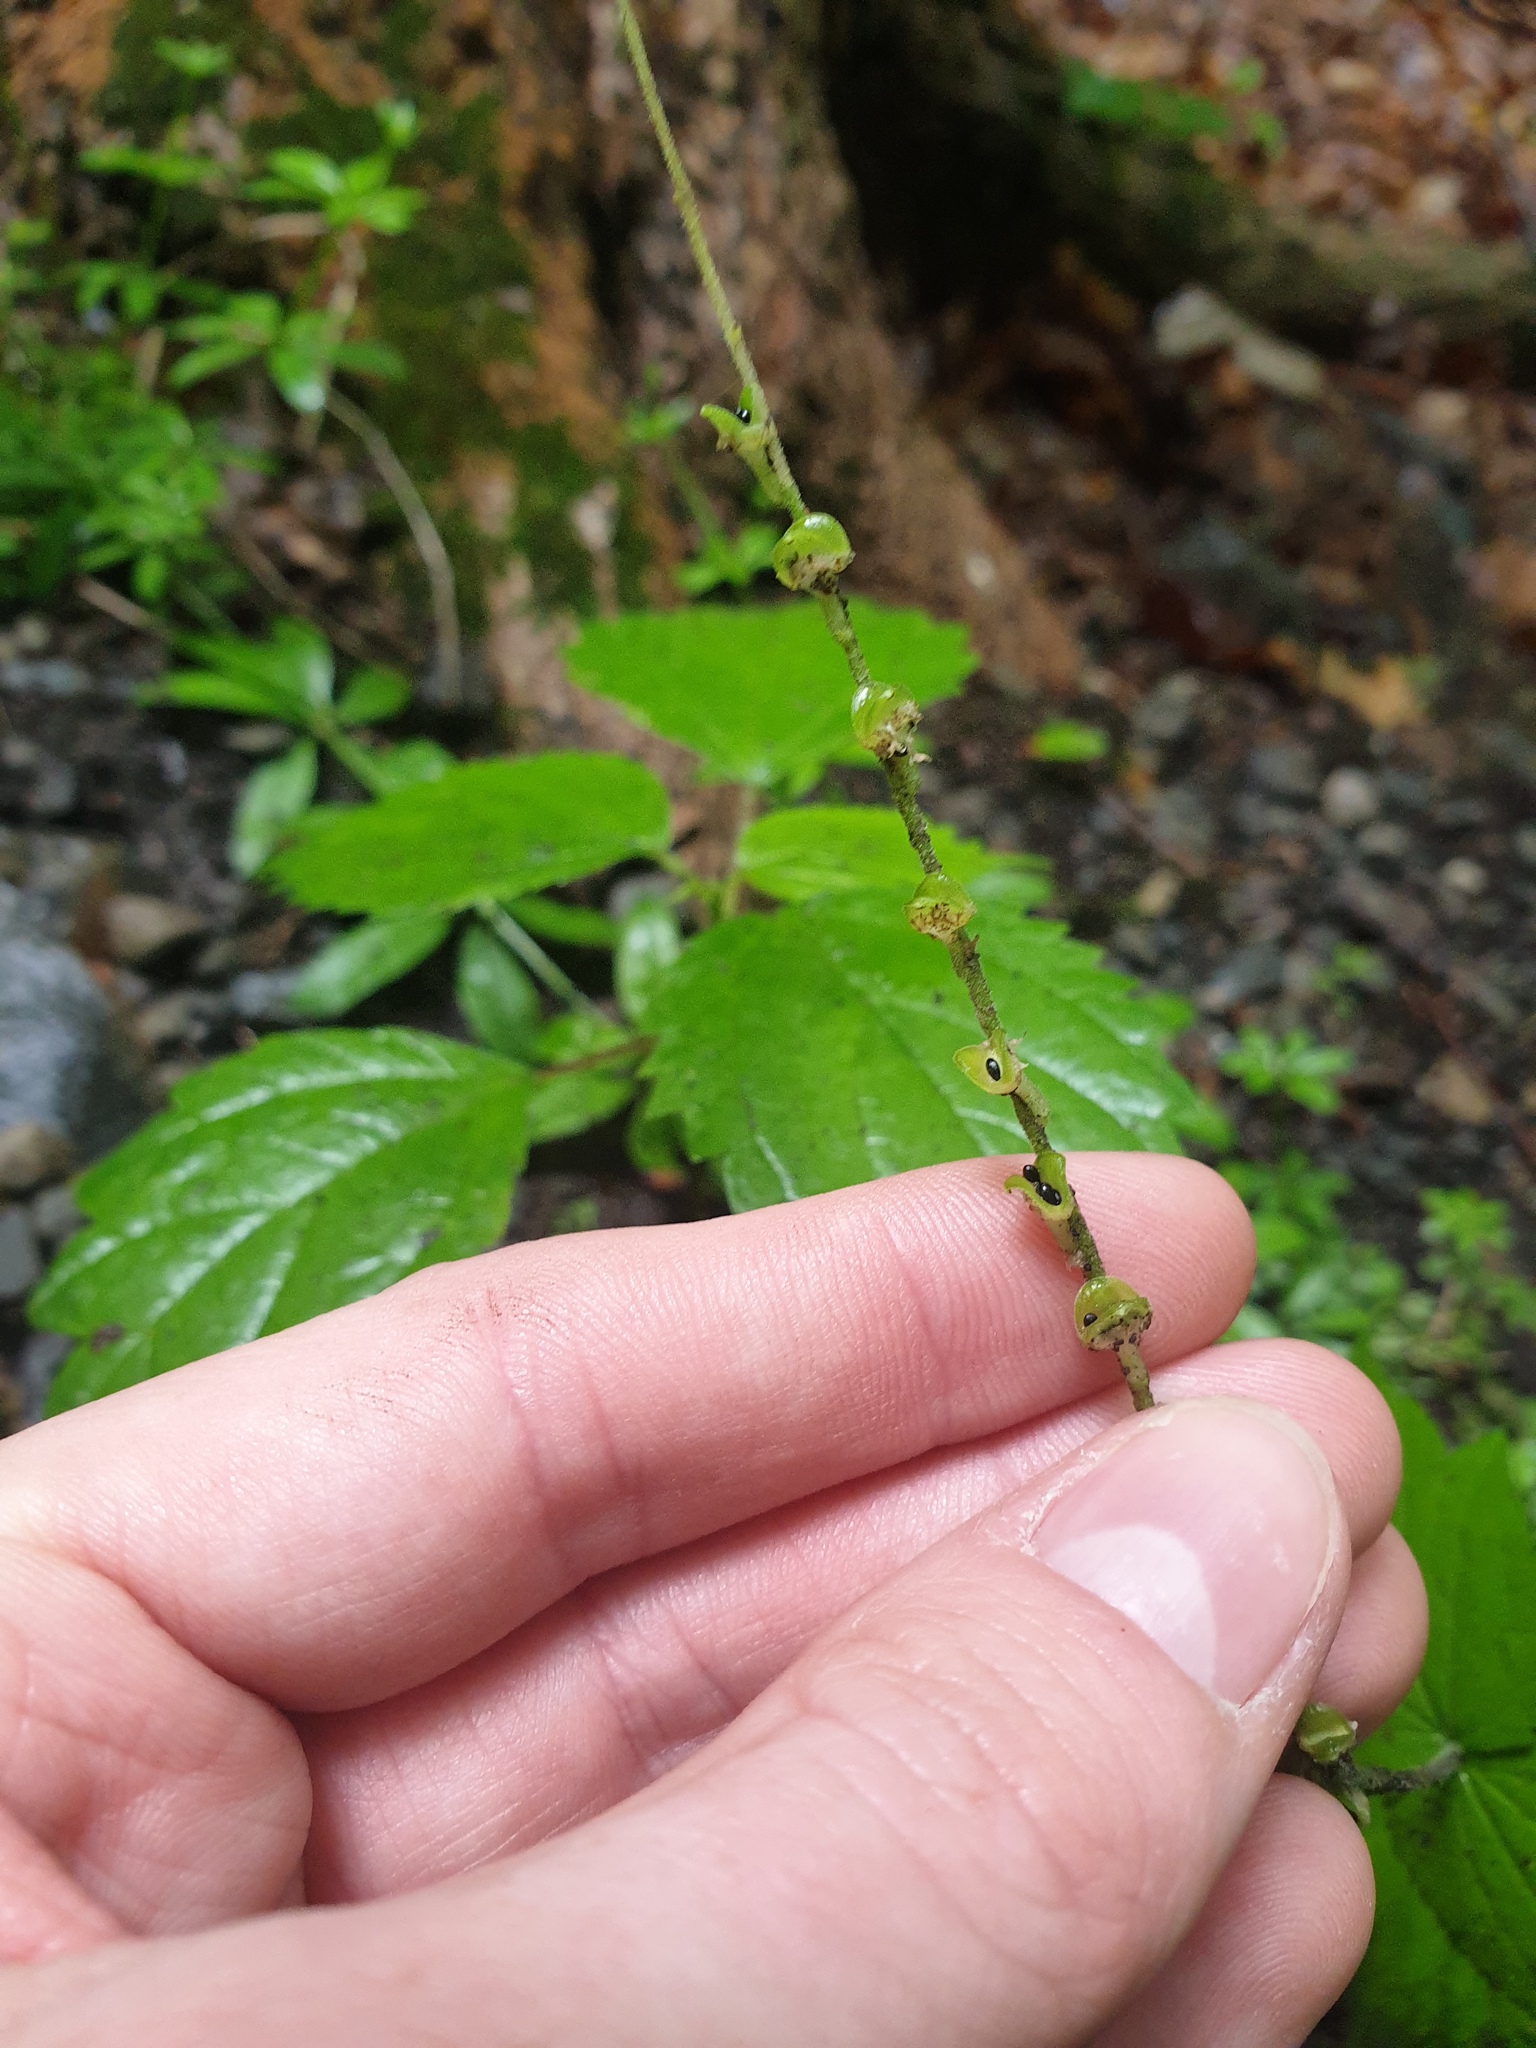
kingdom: Plantae
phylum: Tracheophyta
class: Magnoliopsida
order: Saxifragales
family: Saxifragaceae
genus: Mitella
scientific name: Mitella diphylla
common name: Coolwort
